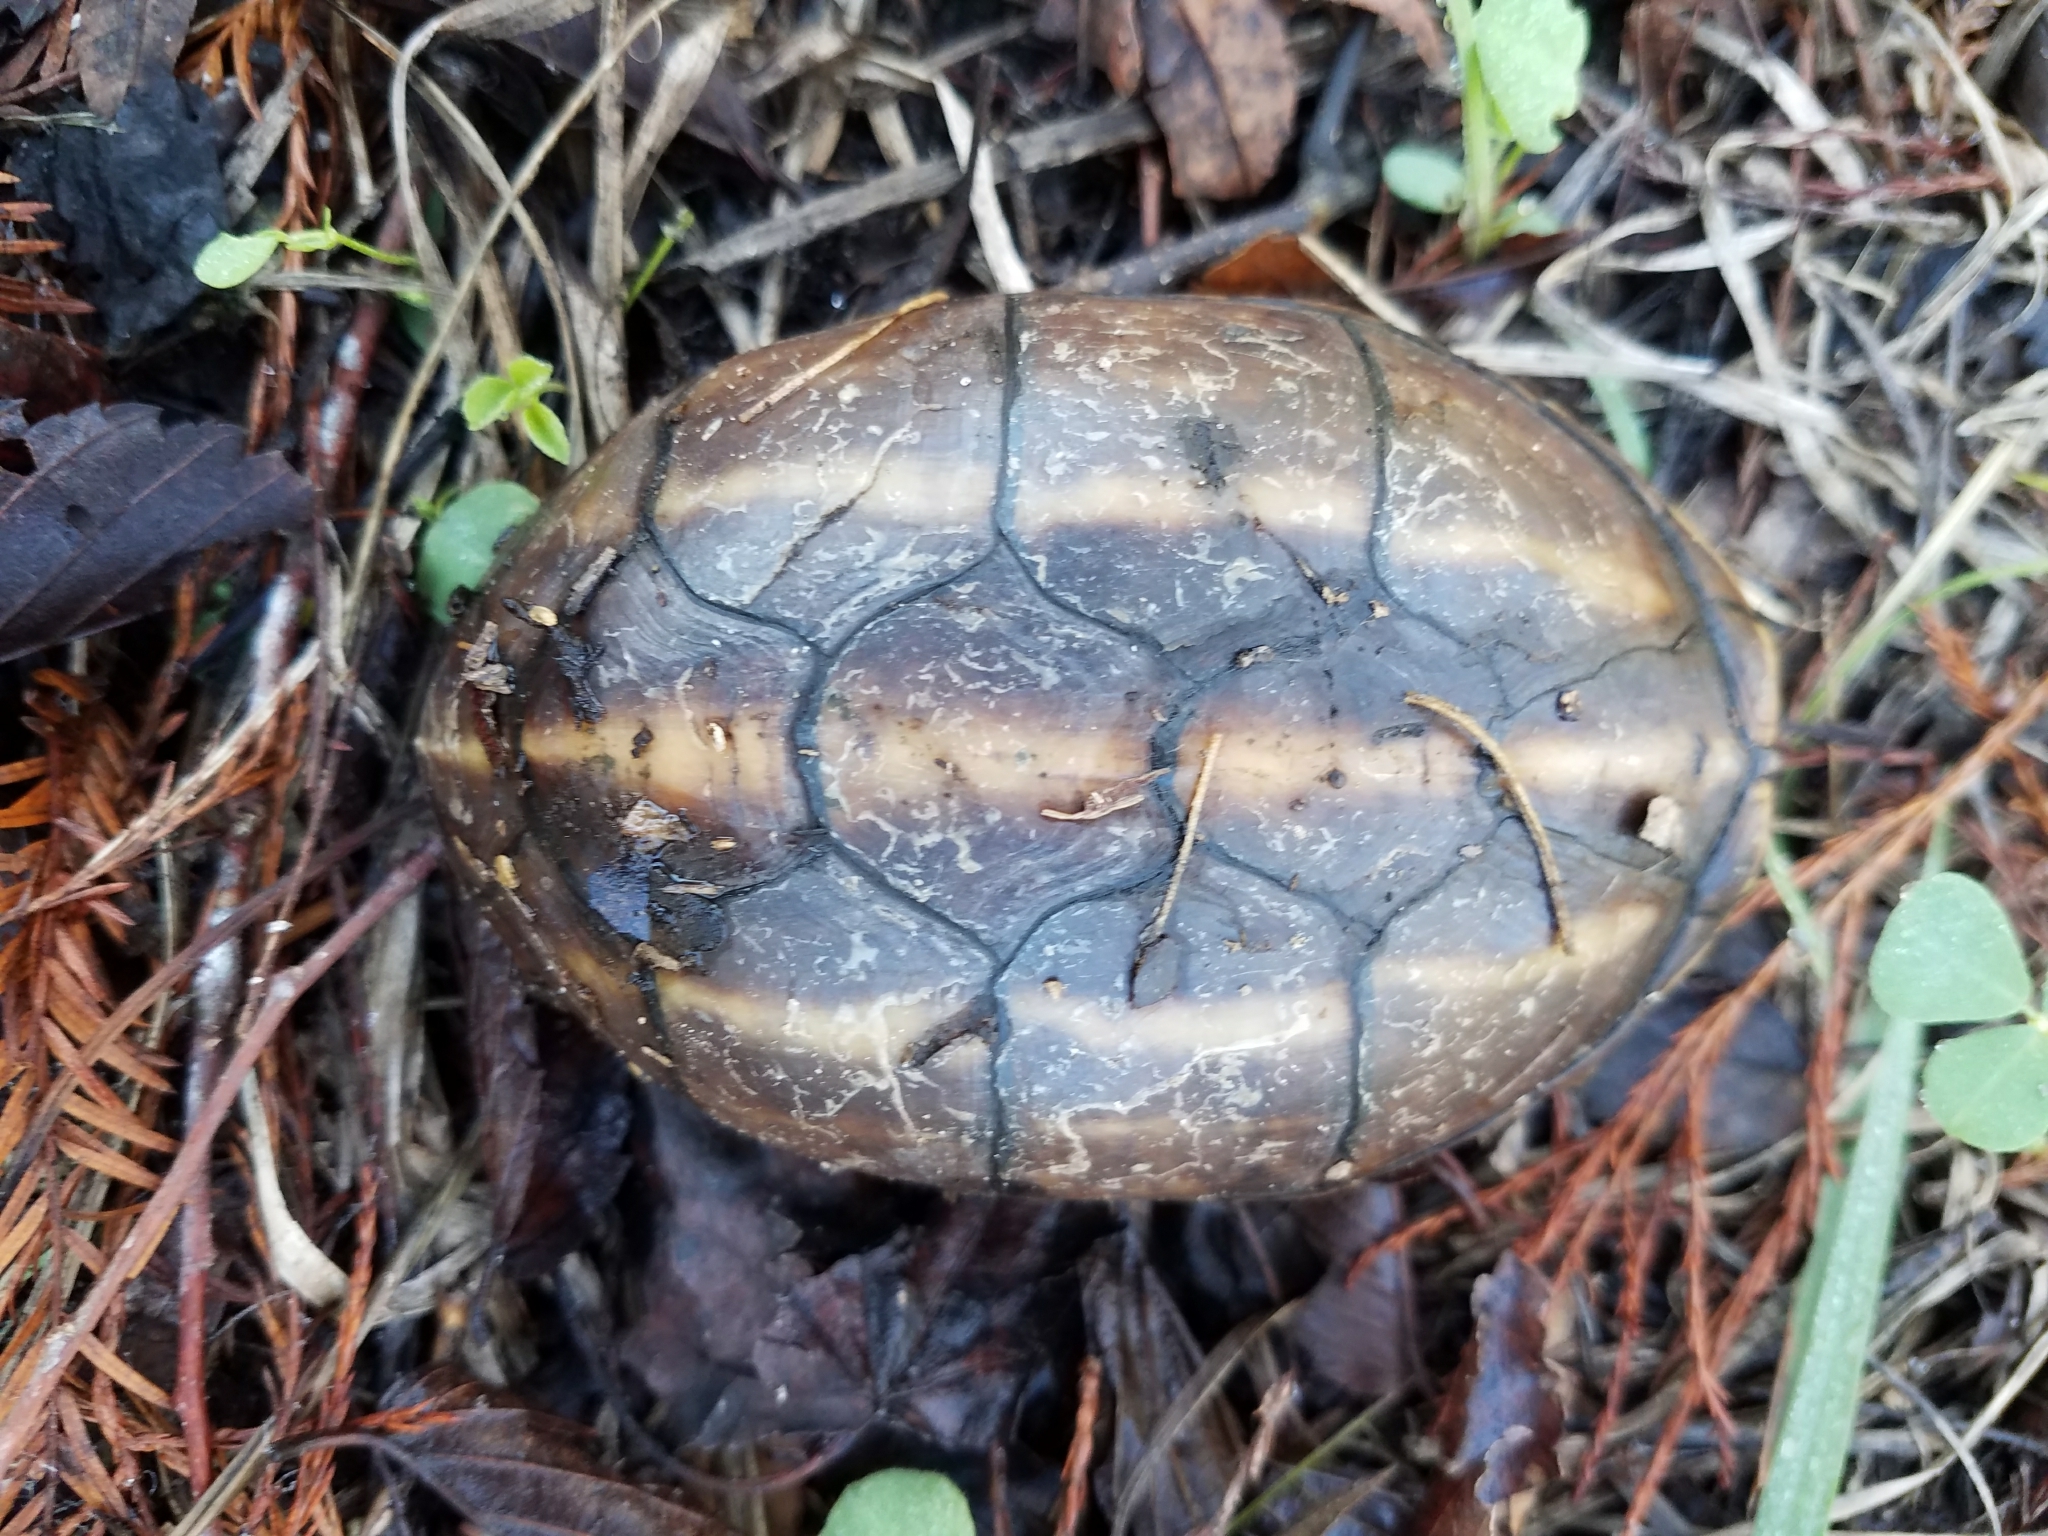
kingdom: Animalia
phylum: Chordata
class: Testudines
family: Kinosternidae
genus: Kinosternon
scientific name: Kinosternon baurii
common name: Striped mud turtle
